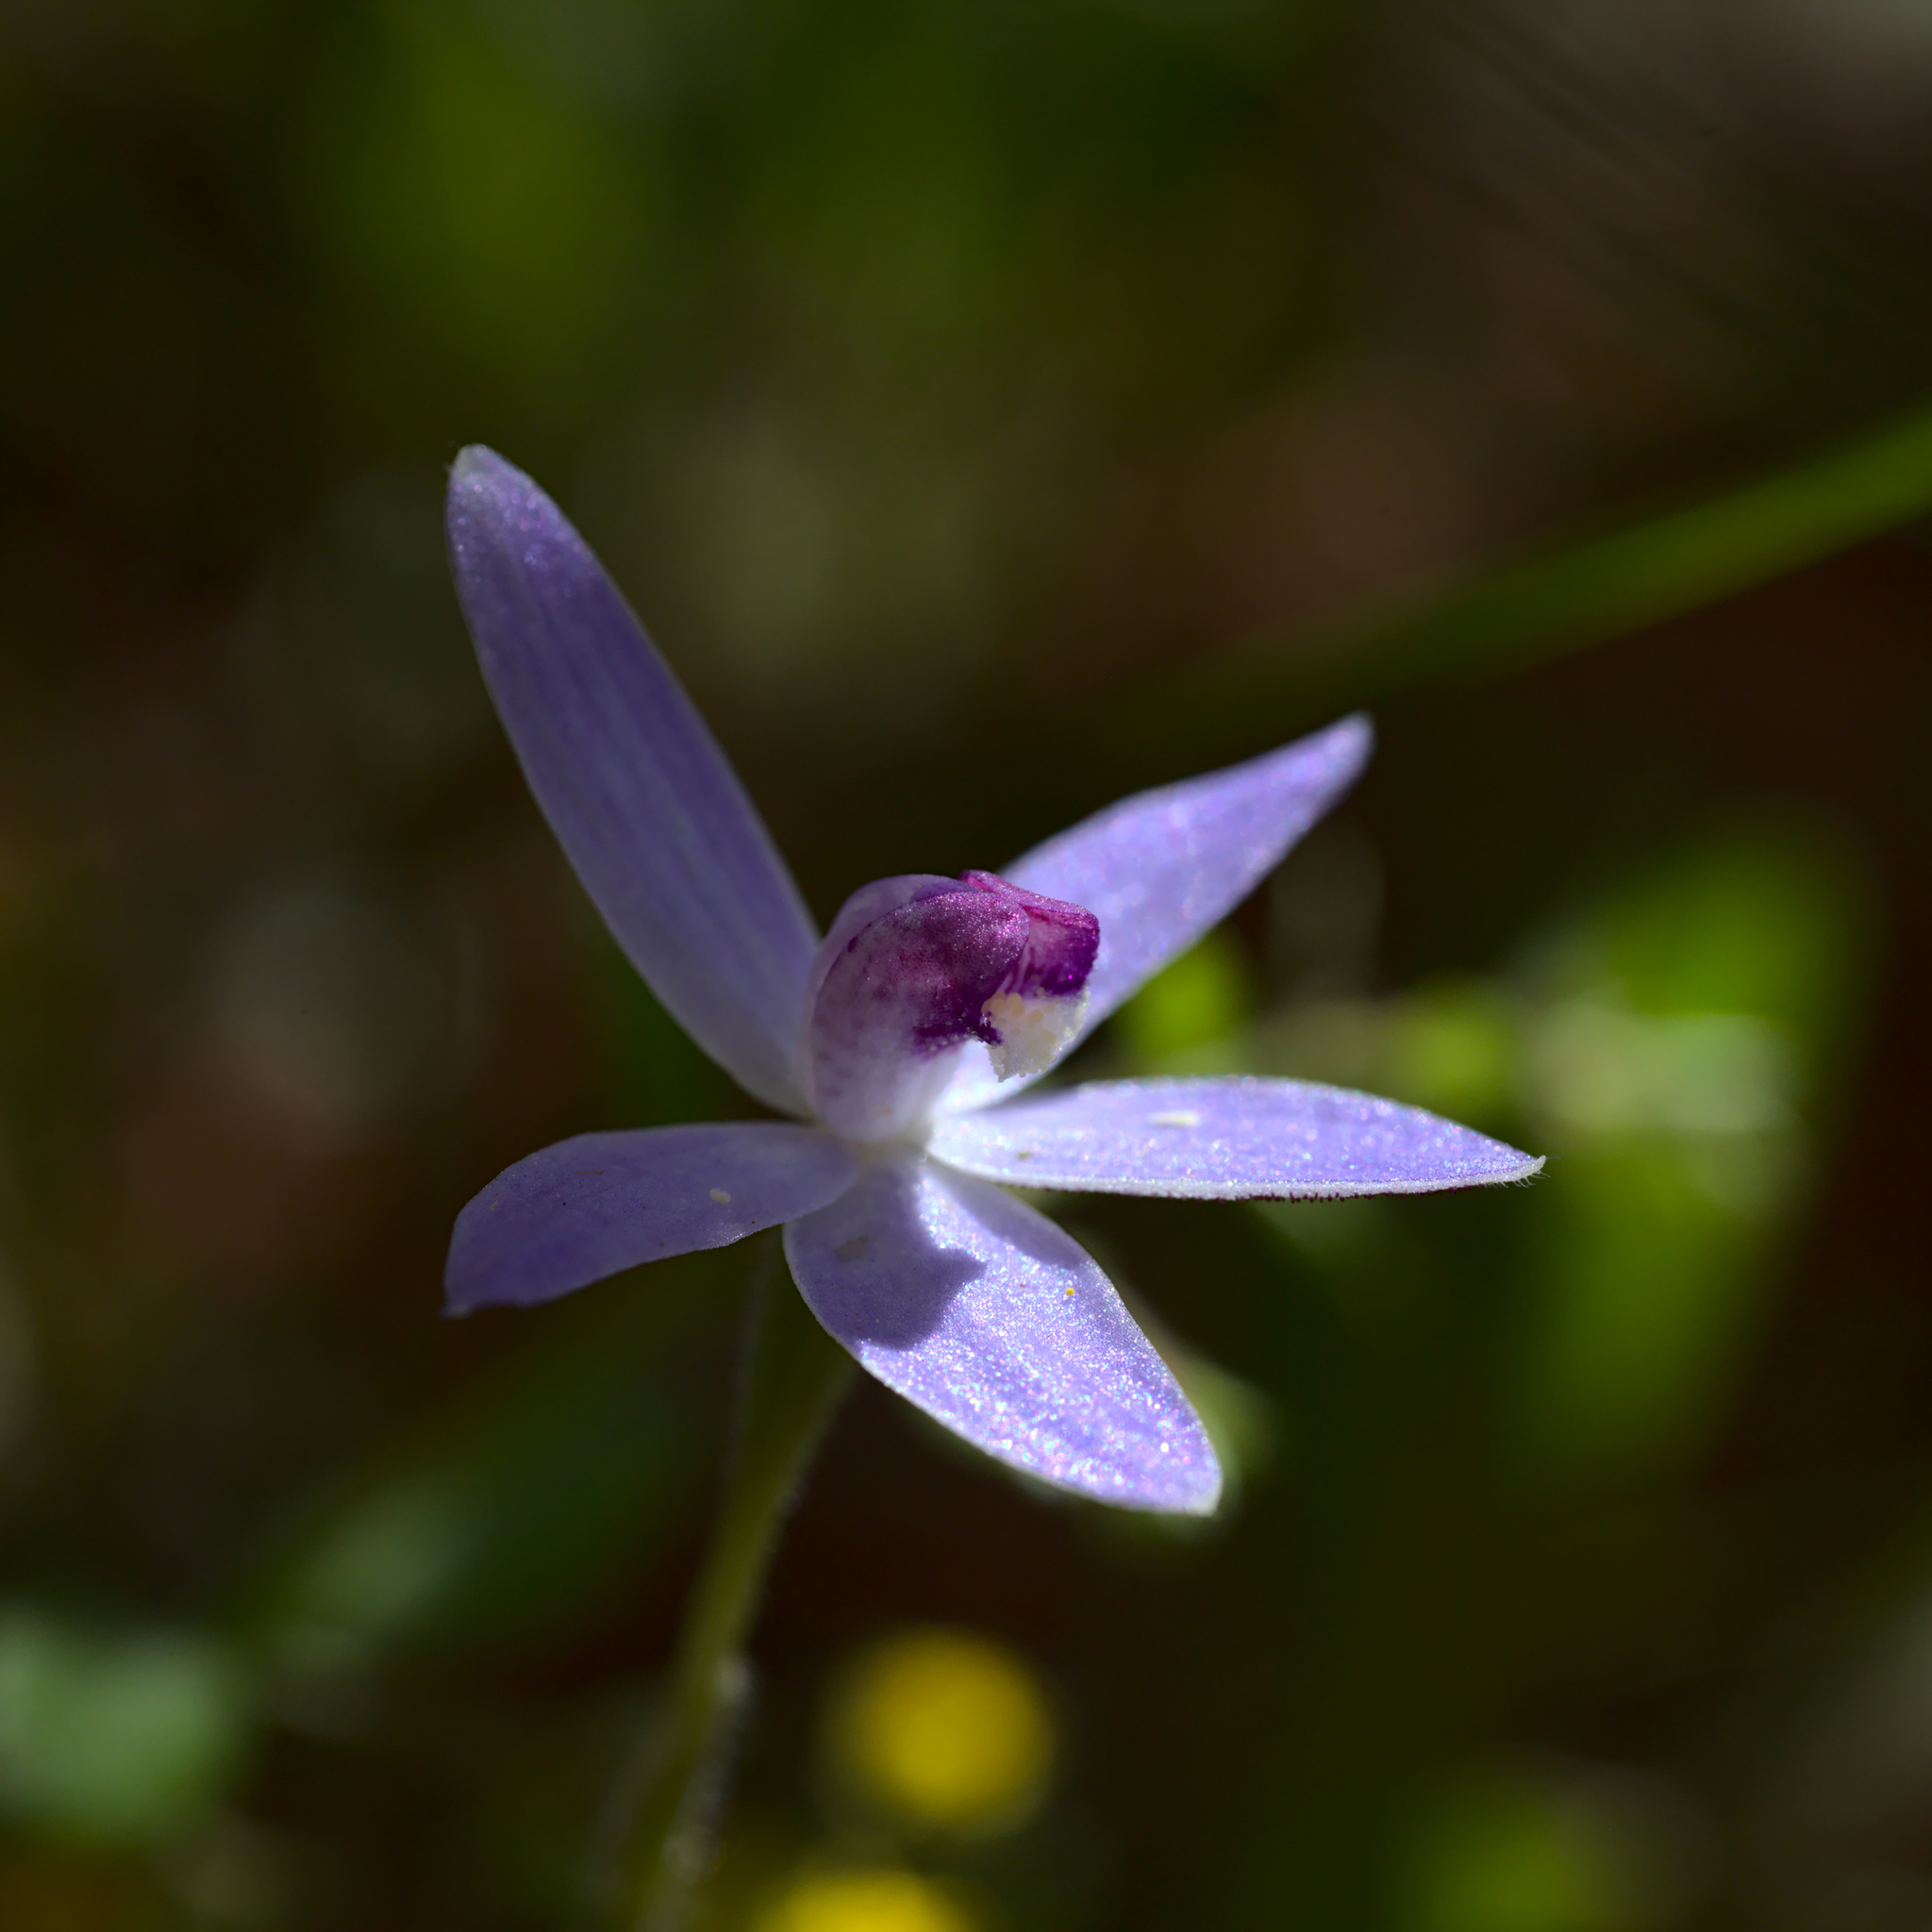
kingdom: Plantae
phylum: Tracheophyta
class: Liliopsida
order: Asparagales
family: Orchidaceae
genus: Caladenia
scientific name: Caladenia amplexans
